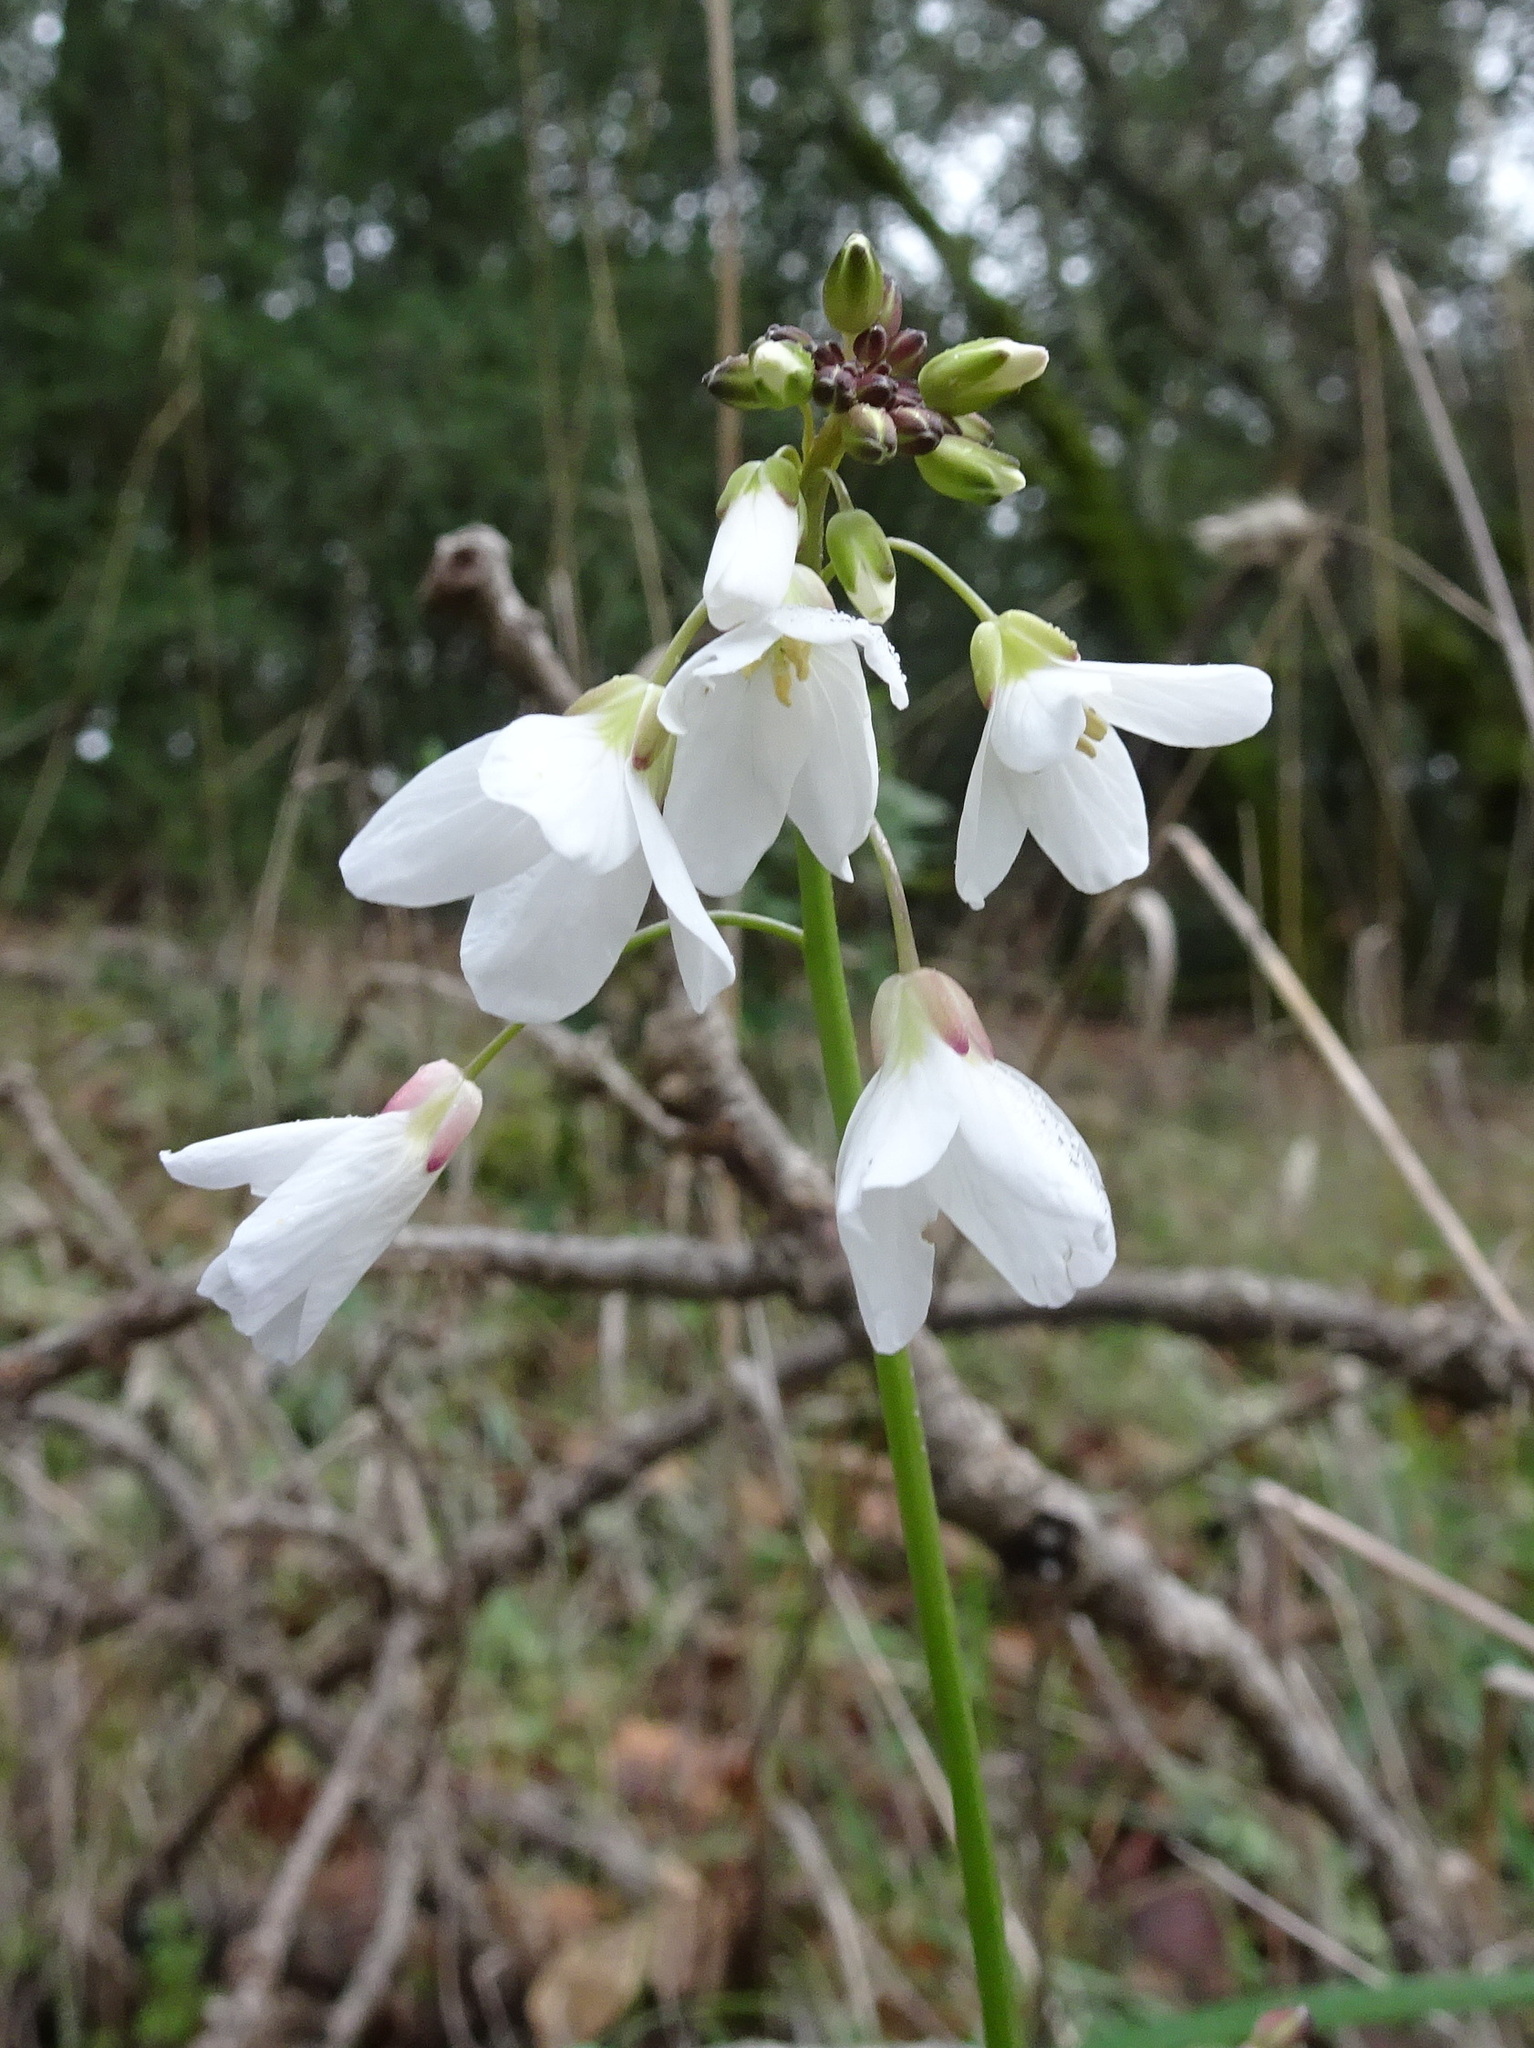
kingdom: Plantae
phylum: Tracheophyta
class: Magnoliopsida
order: Brassicales
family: Brassicaceae
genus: Cardamine
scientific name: Cardamine californica
